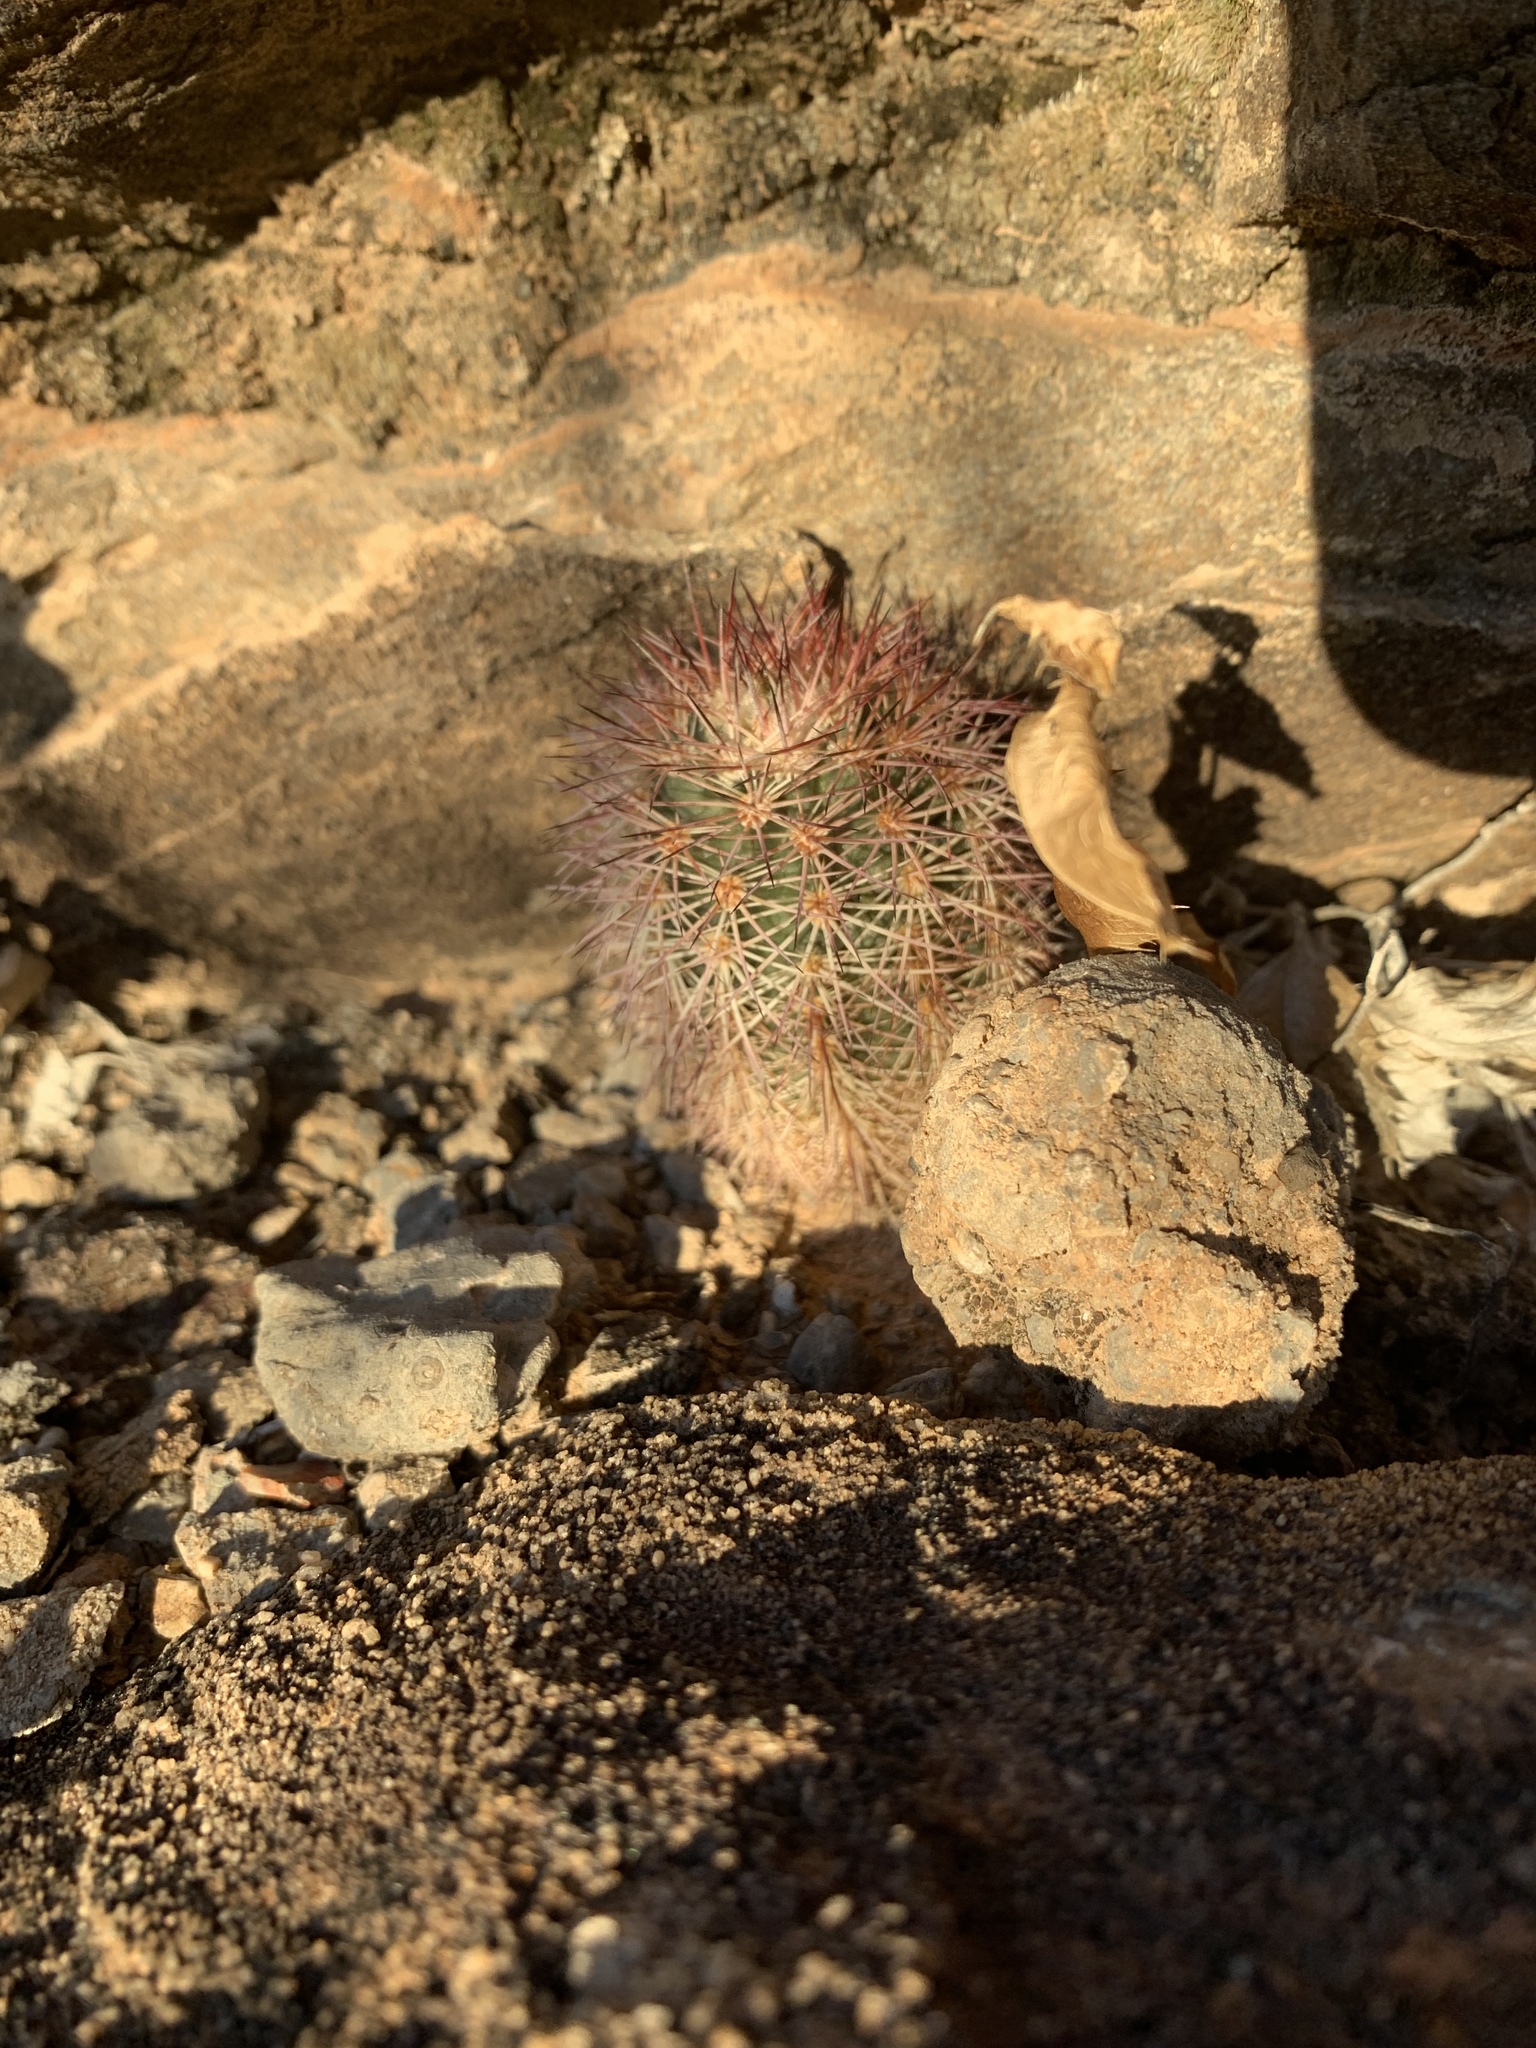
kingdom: Plantae
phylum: Tracheophyta
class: Magnoliopsida
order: Caryophyllales
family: Cactaceae
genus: Echinocereus
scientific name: Echinocereus dasyacanthus
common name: Spiny hedgehog cactus
